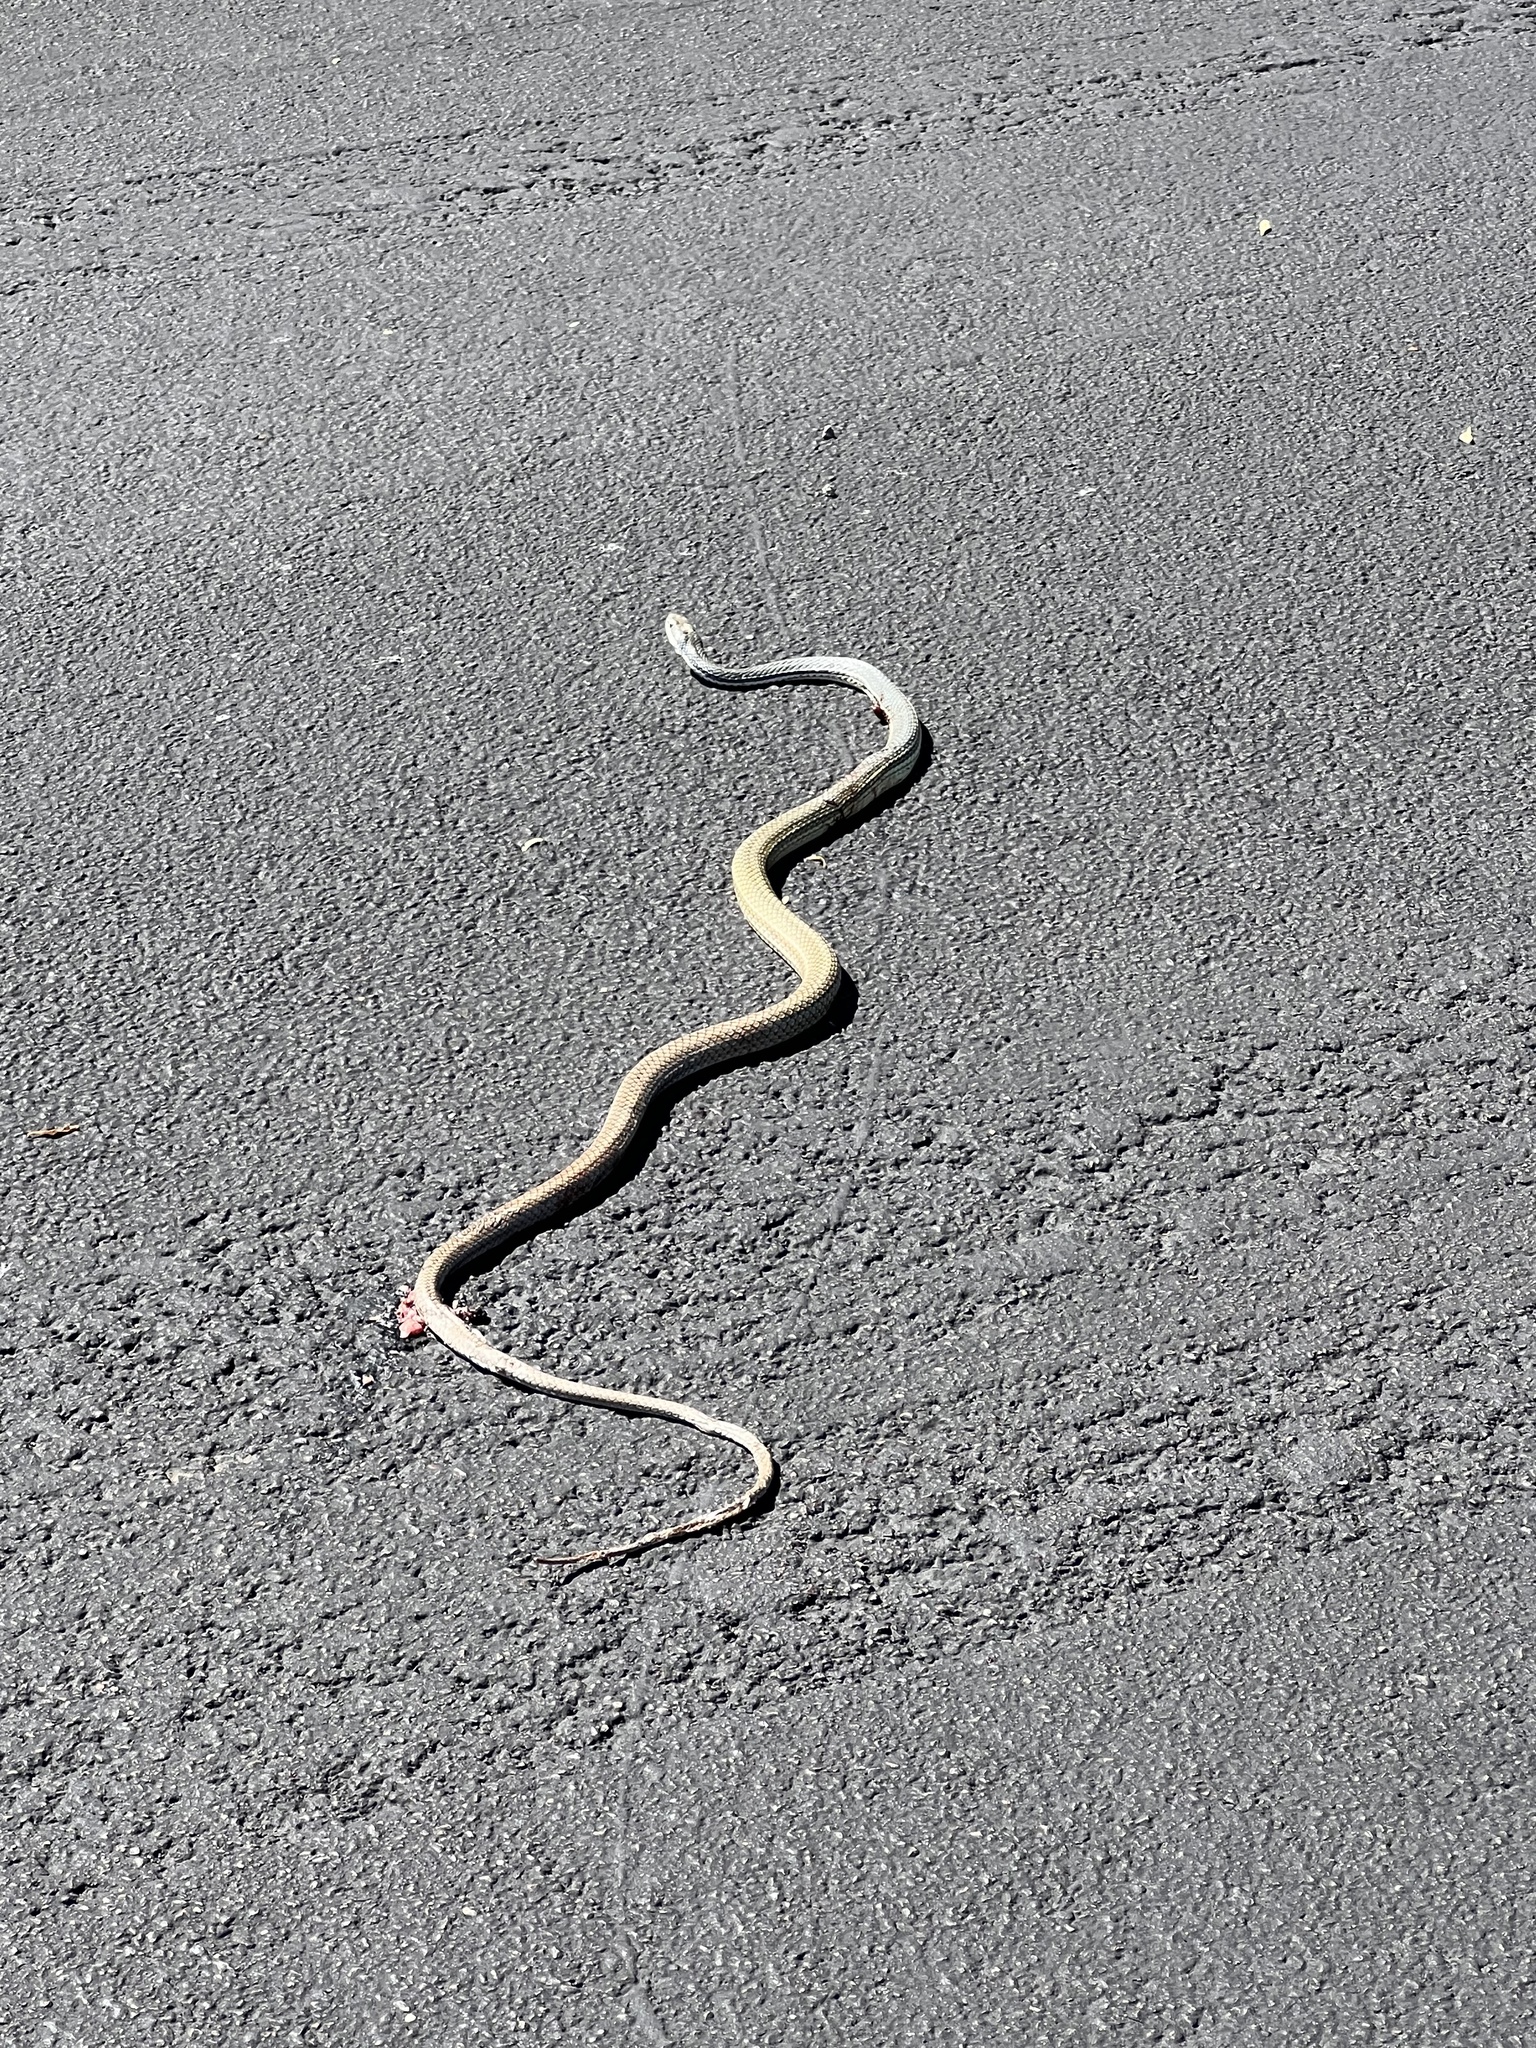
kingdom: Animalia
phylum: Chordata
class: Squamata
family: Colubridae
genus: Masticophis
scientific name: Masticophis bilineatus
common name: Sonoran whipsnake
